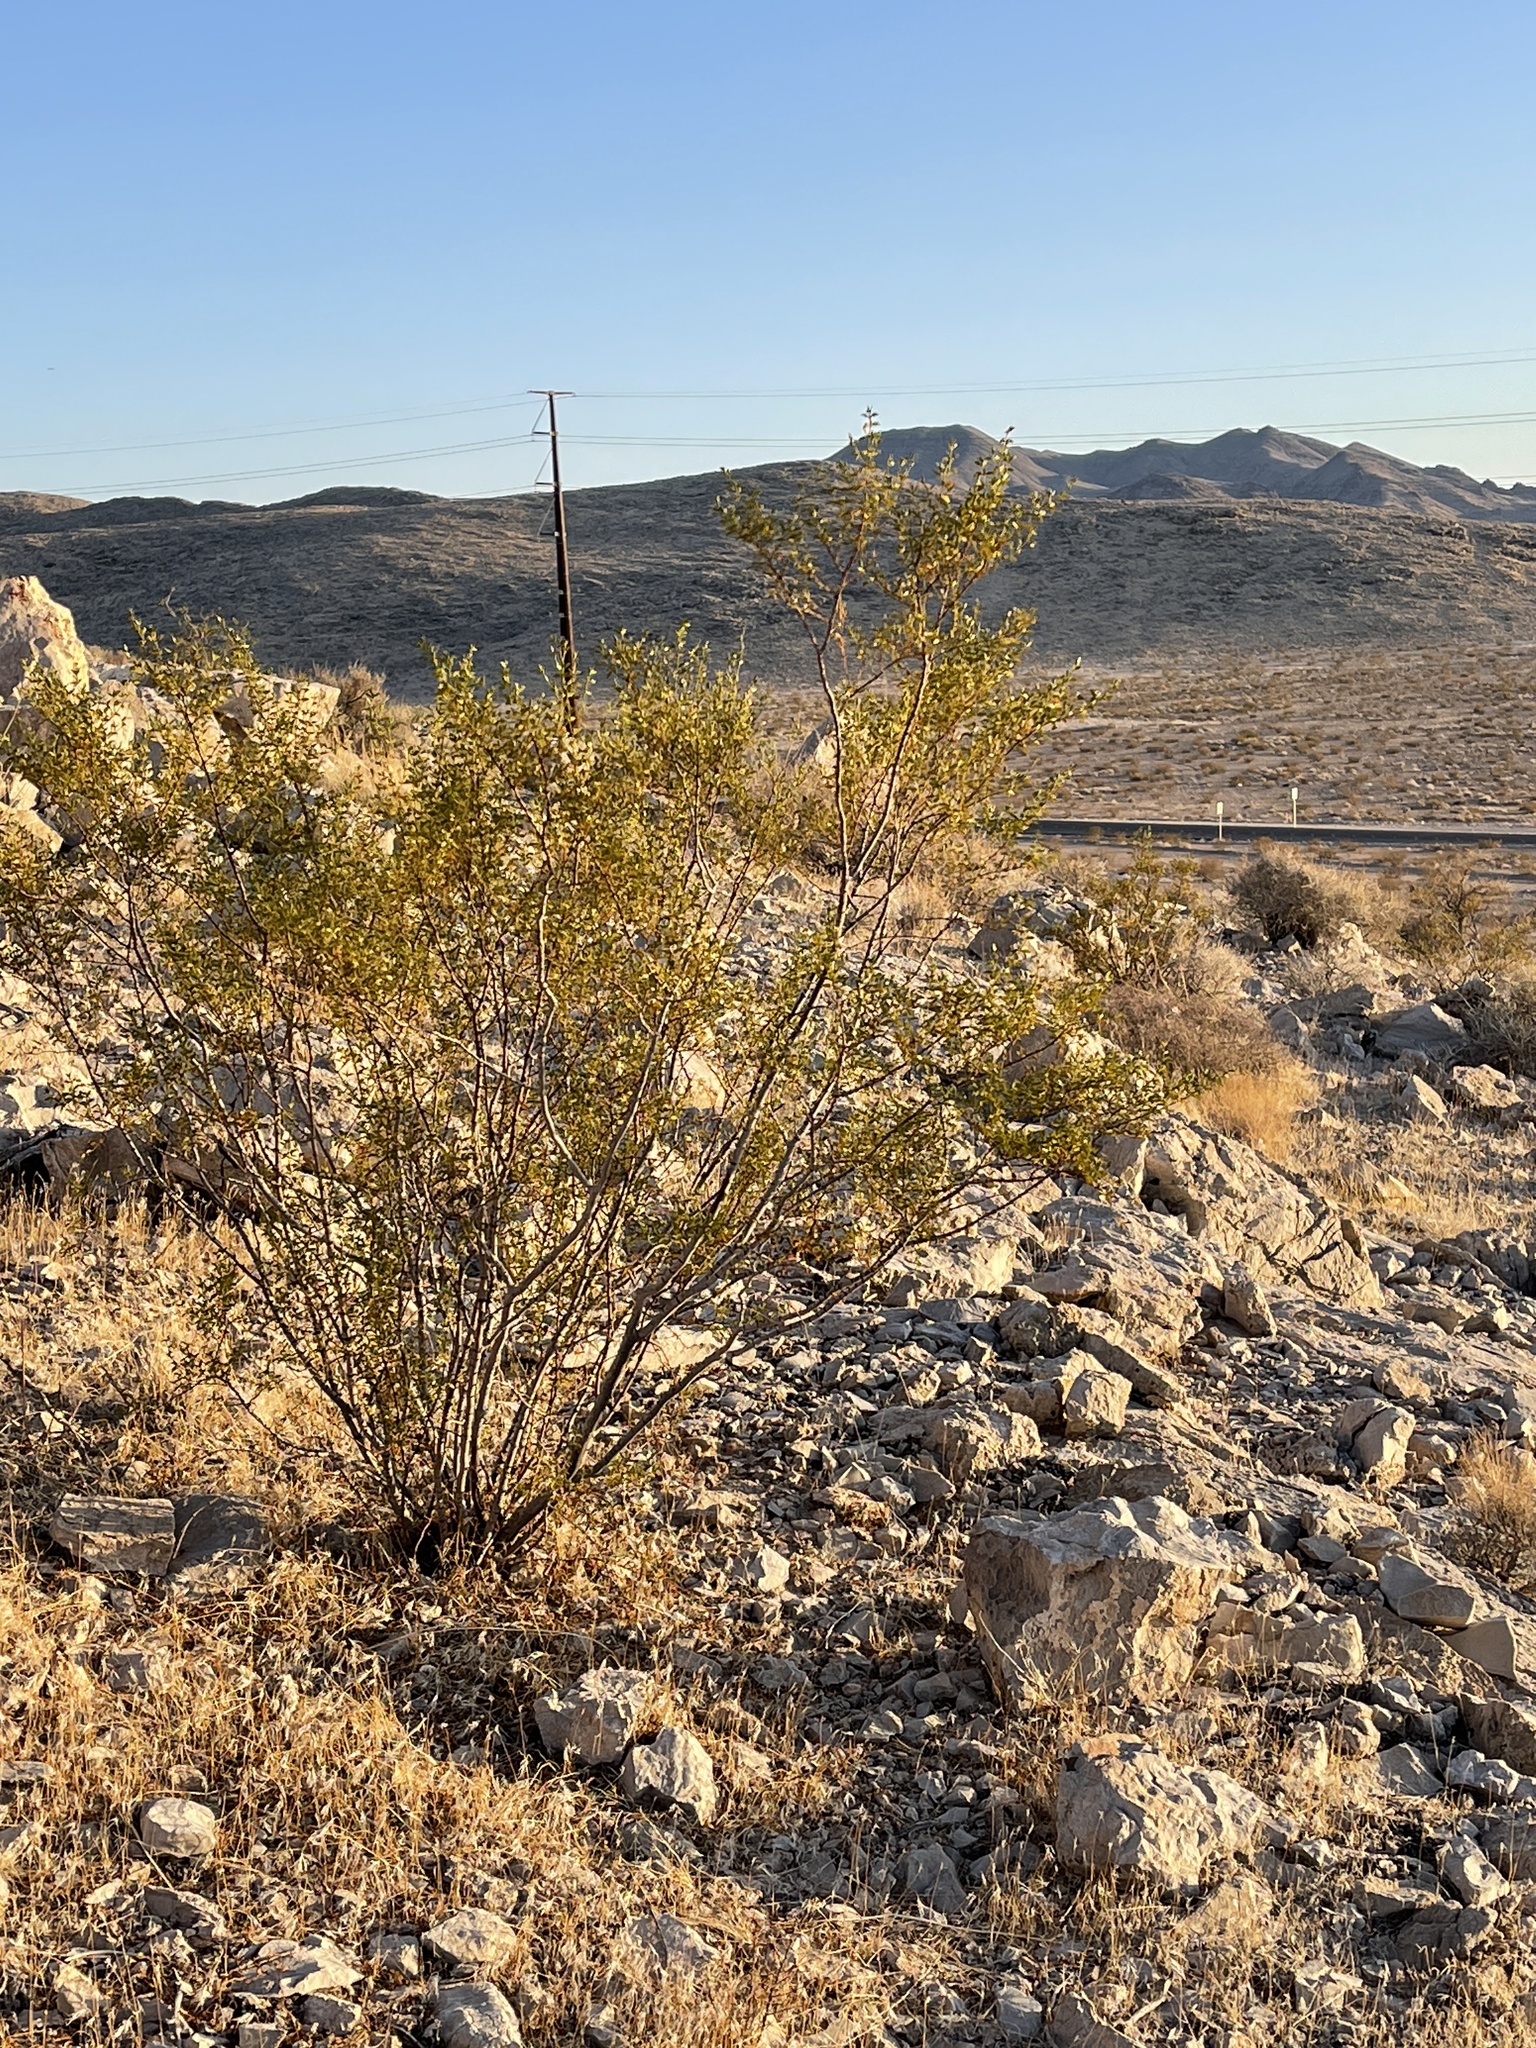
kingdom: Plantae
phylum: Tracheophyta
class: Magnoliopsida
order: Zygophyllales
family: Zygophyllaceae
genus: Larrea
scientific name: Larrea tridentata
